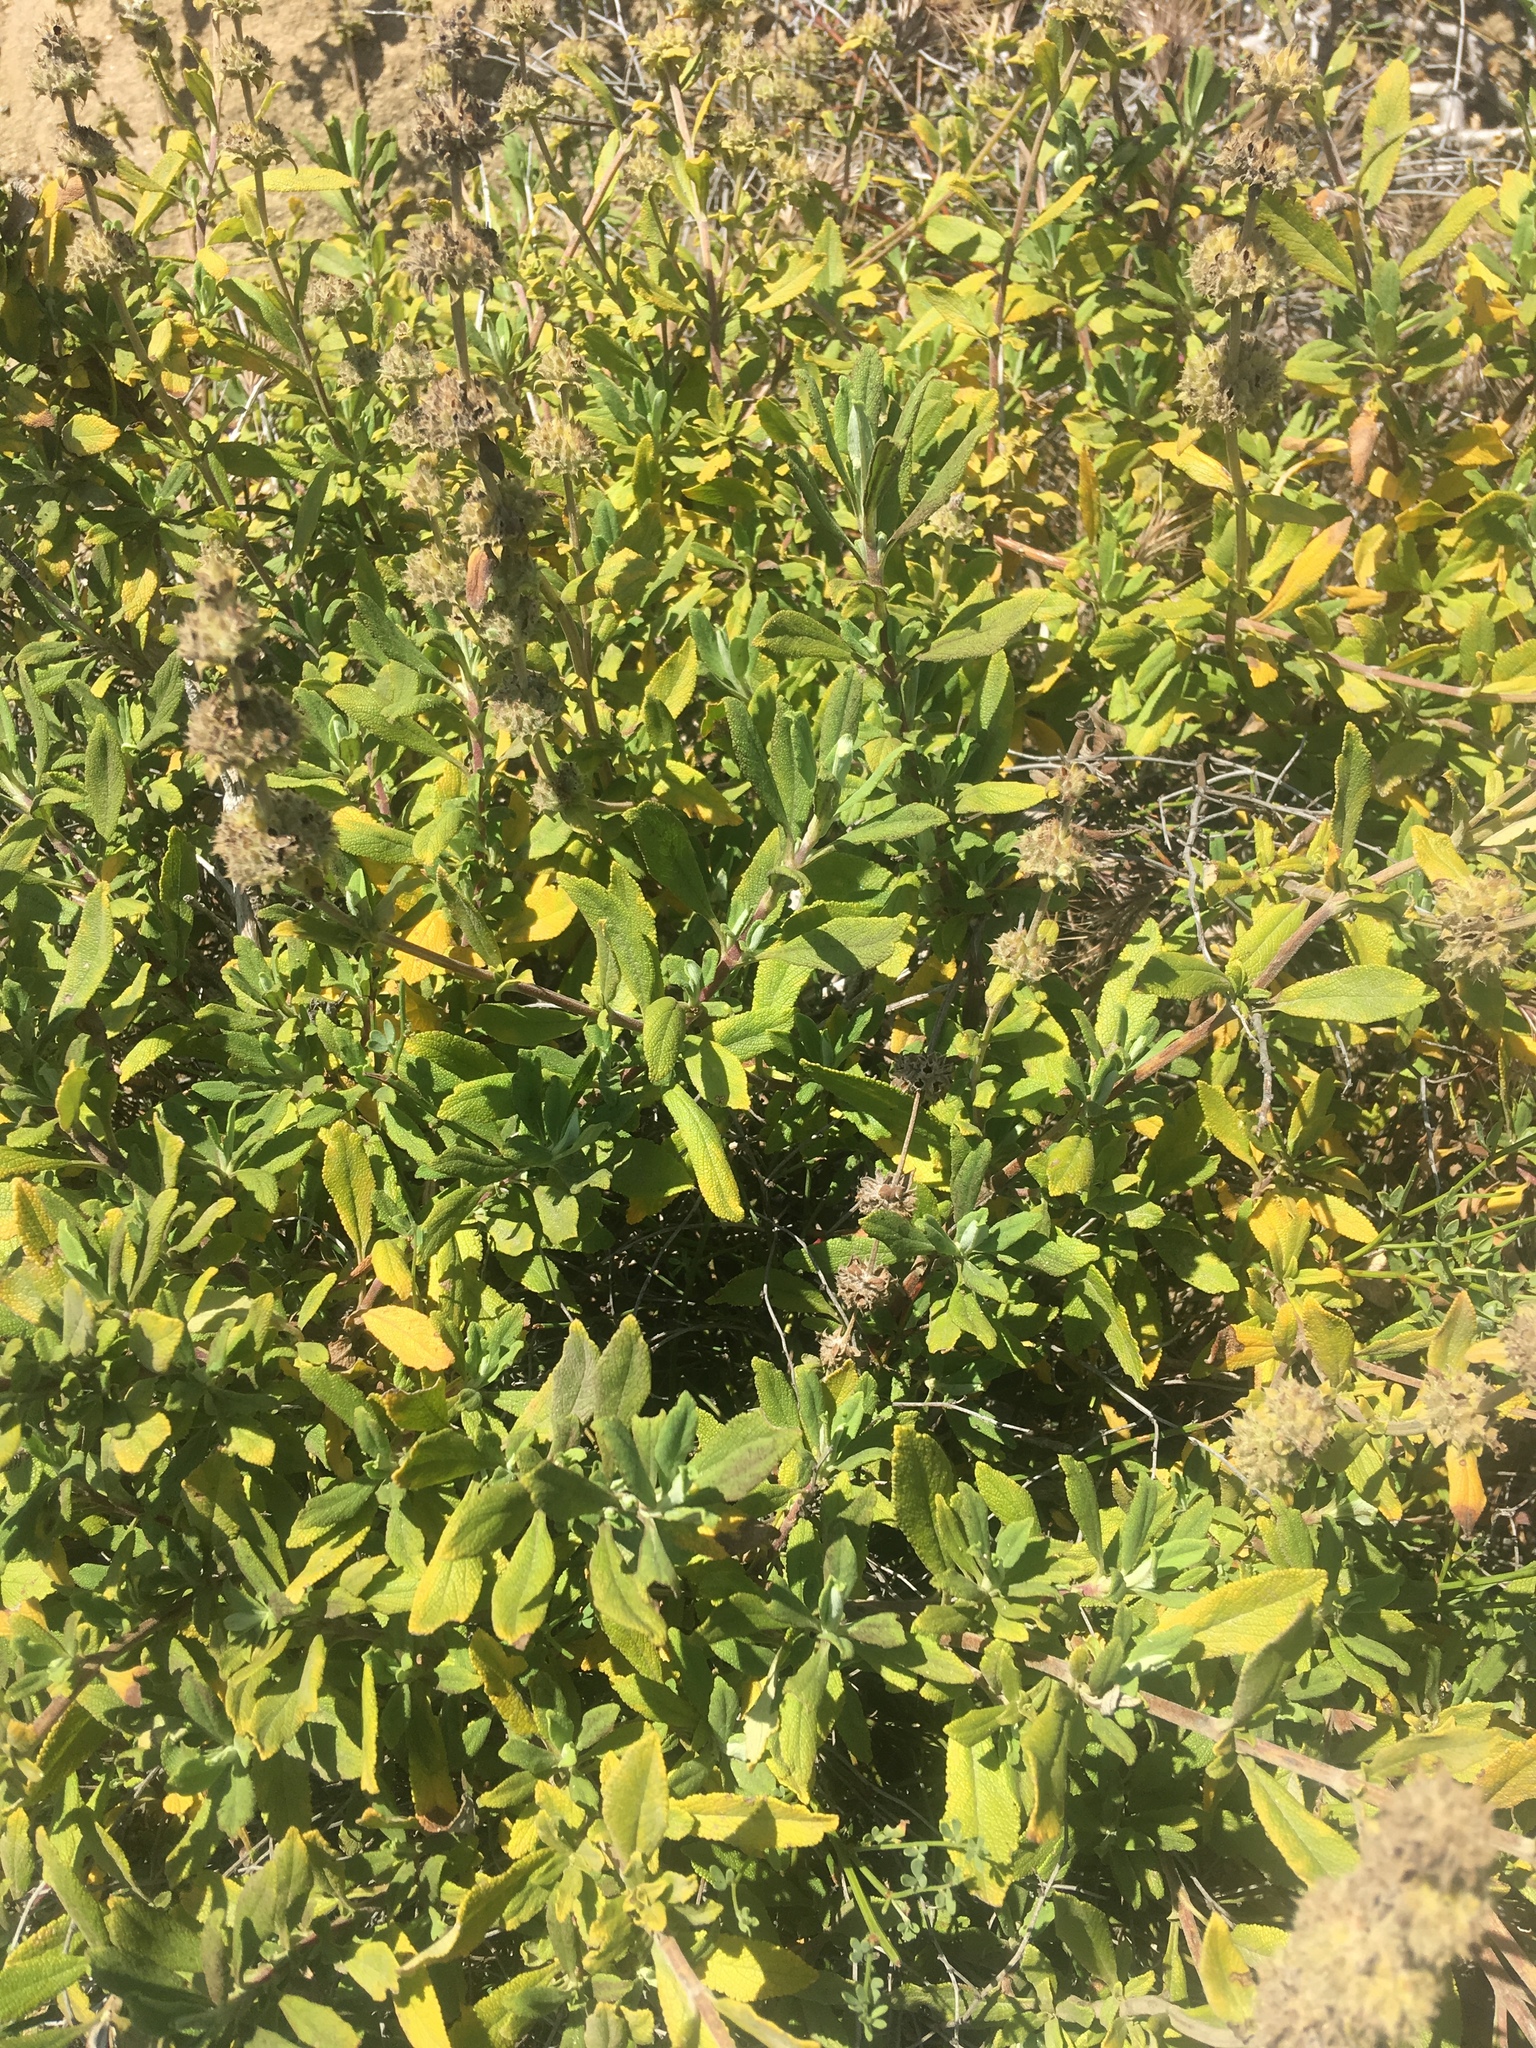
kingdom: Plantae
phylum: Tracheophyta
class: Magnoliopsida
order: Lamiales
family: Lamiaceae
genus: Salvia
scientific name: Salvia mellifera
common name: Black sage
